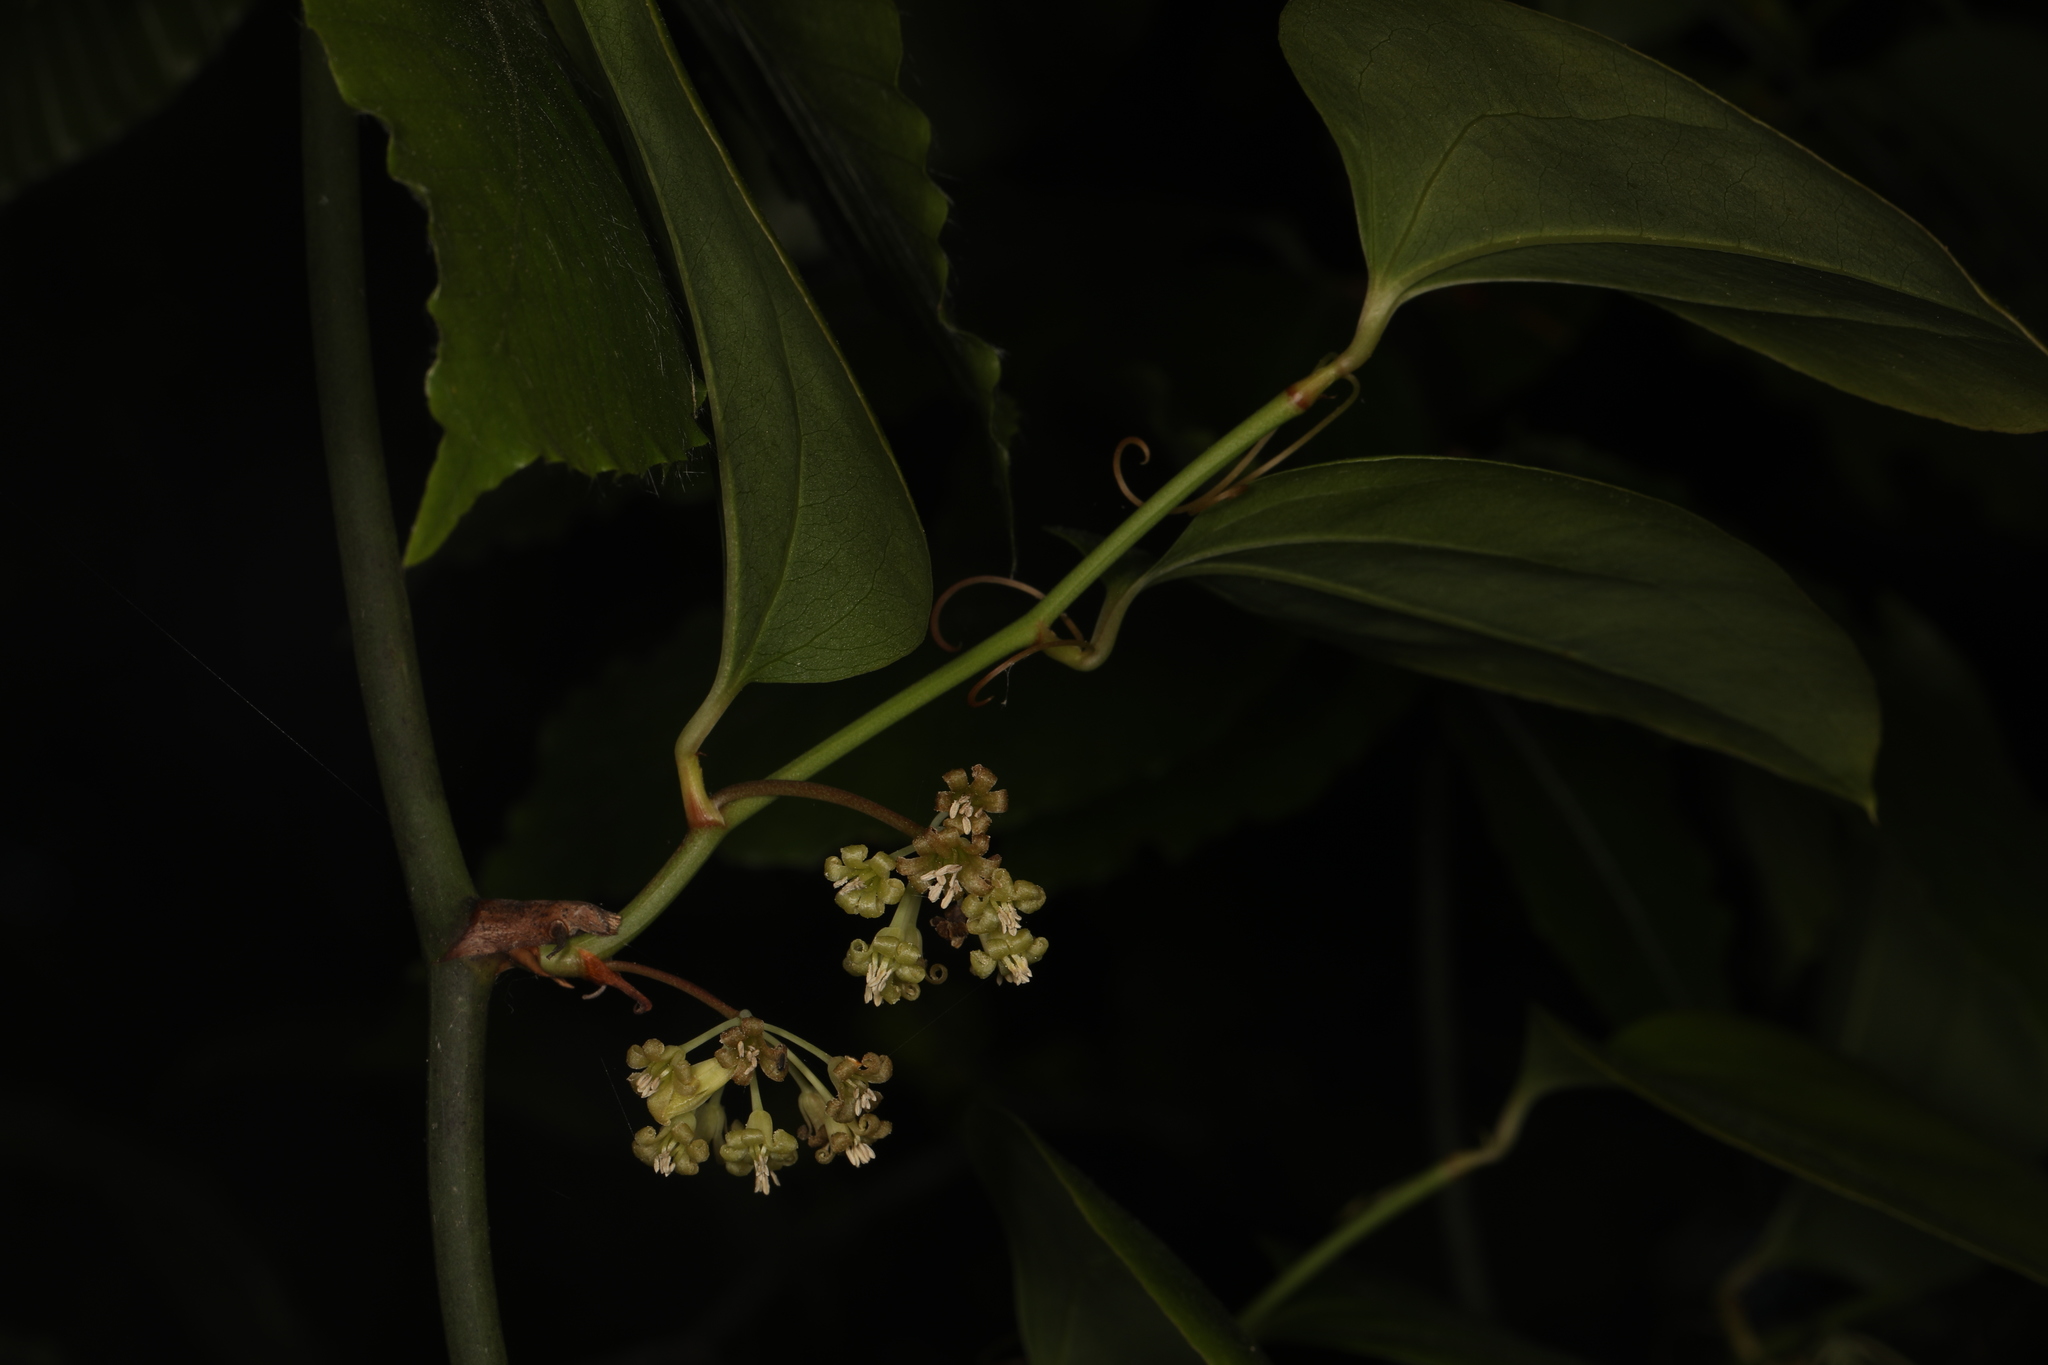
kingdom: Plantae
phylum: Tracheophyta
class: Liliopsida
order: Liliales
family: Smilacaceae
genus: Smilax
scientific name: Smilax rotundifolia
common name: Bullbriar
